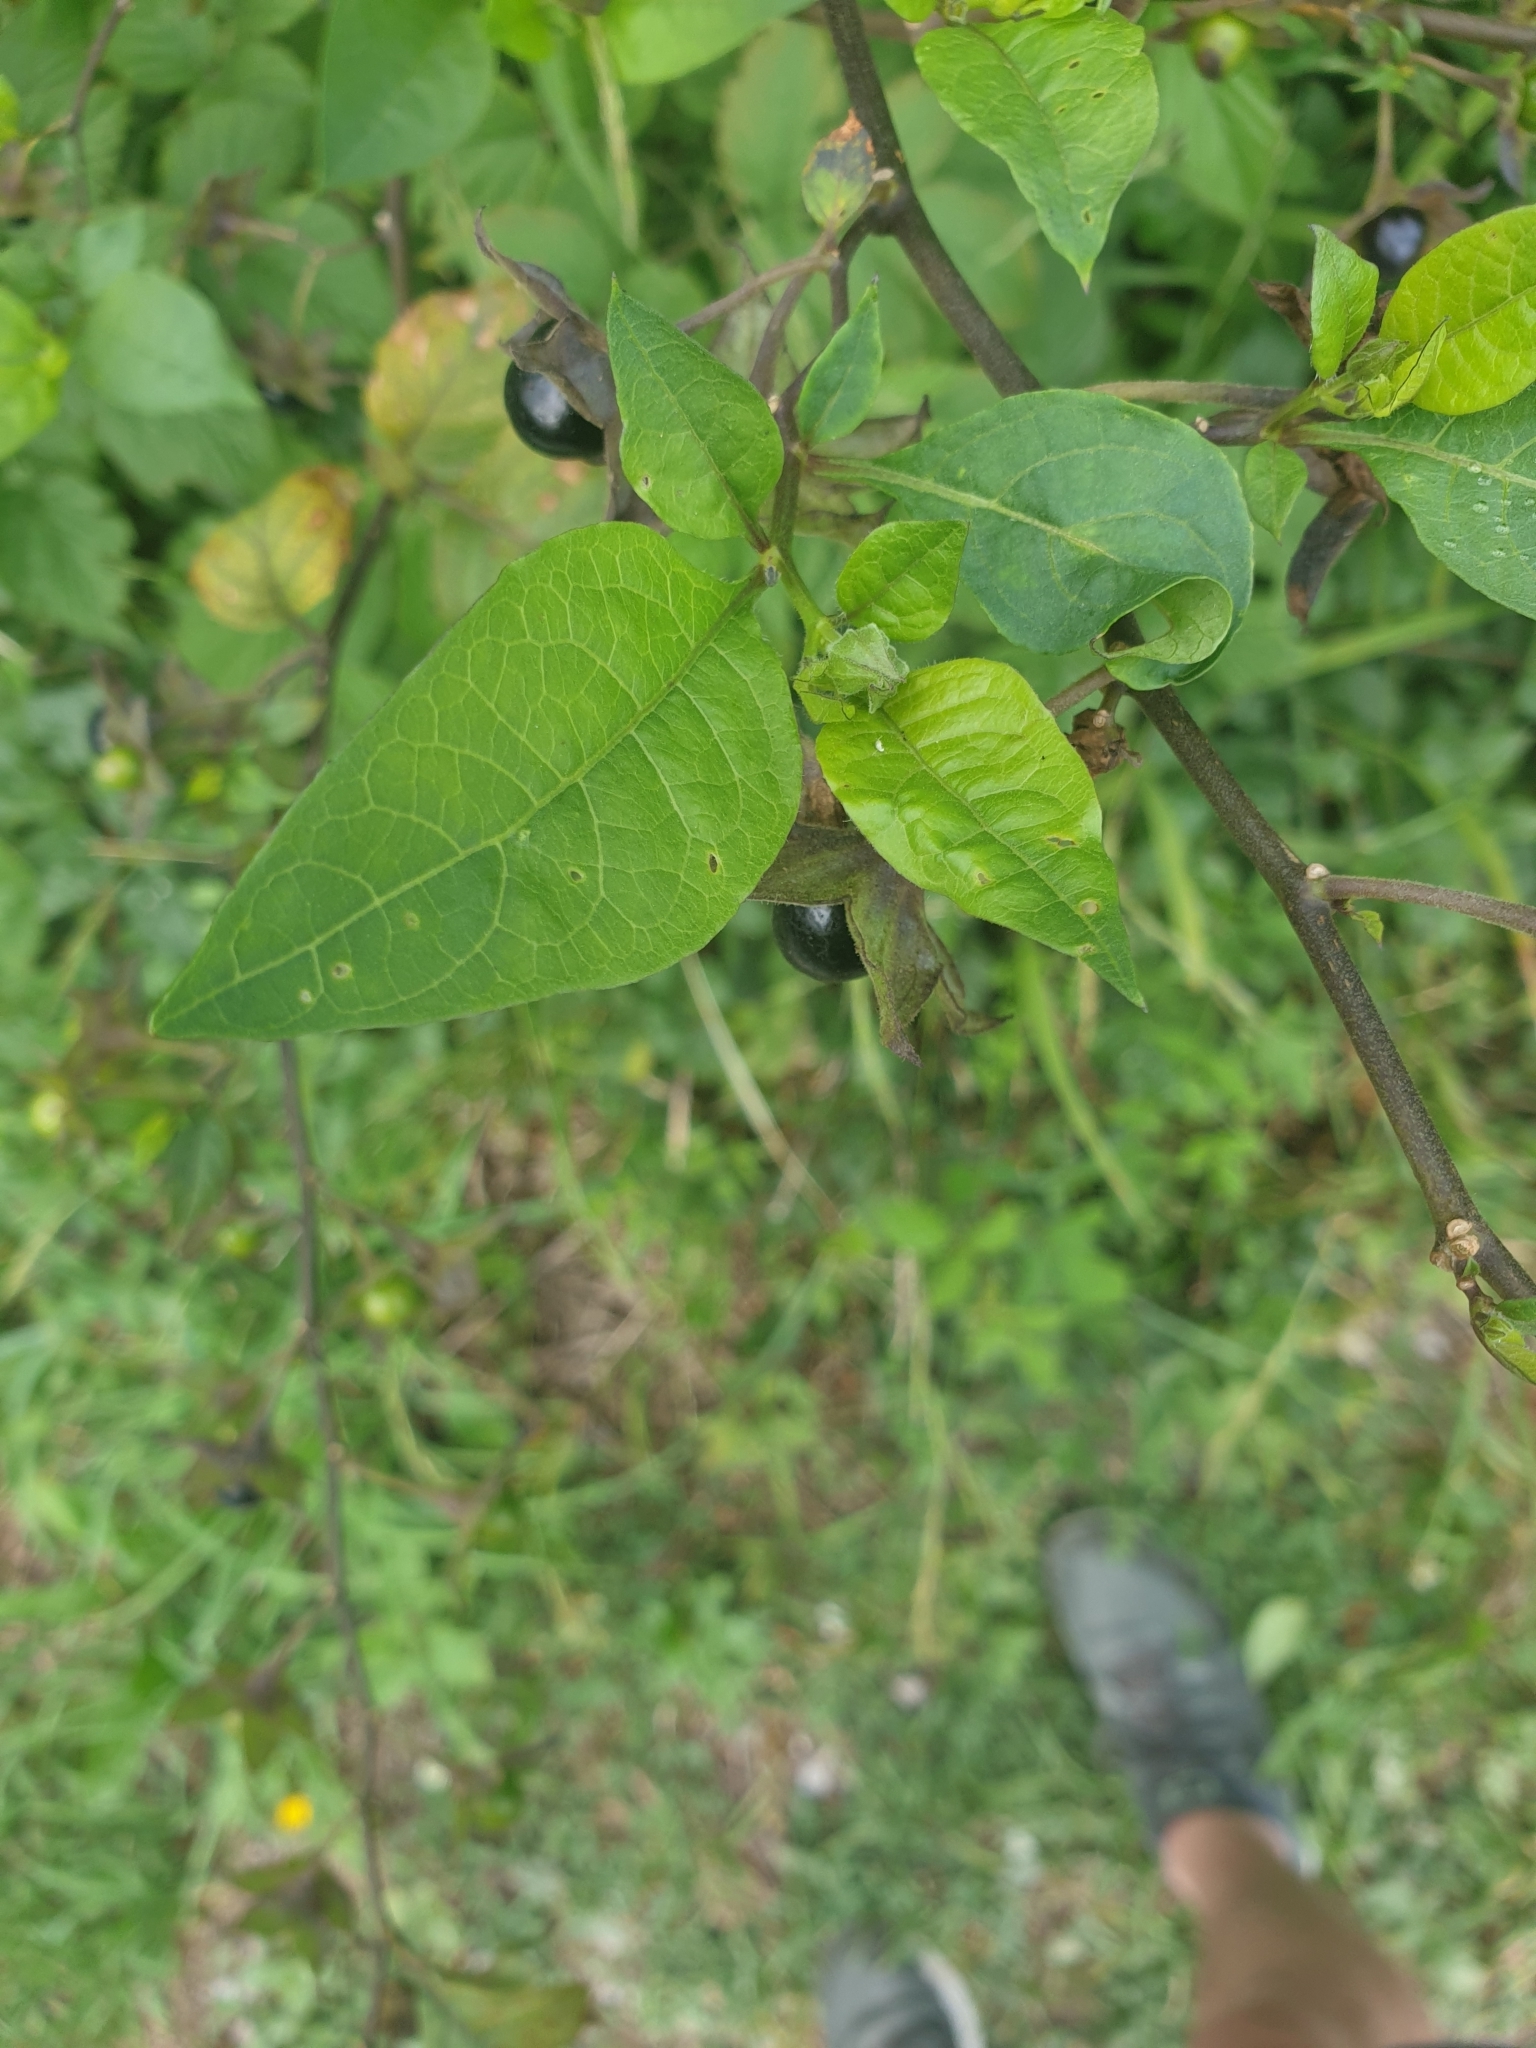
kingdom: Plantae
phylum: Tracheophyta
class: Magnoliopsida
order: Solanales
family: Solanaceae
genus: Atropa
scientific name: Atropa belladonna
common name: Deadly nightshade
